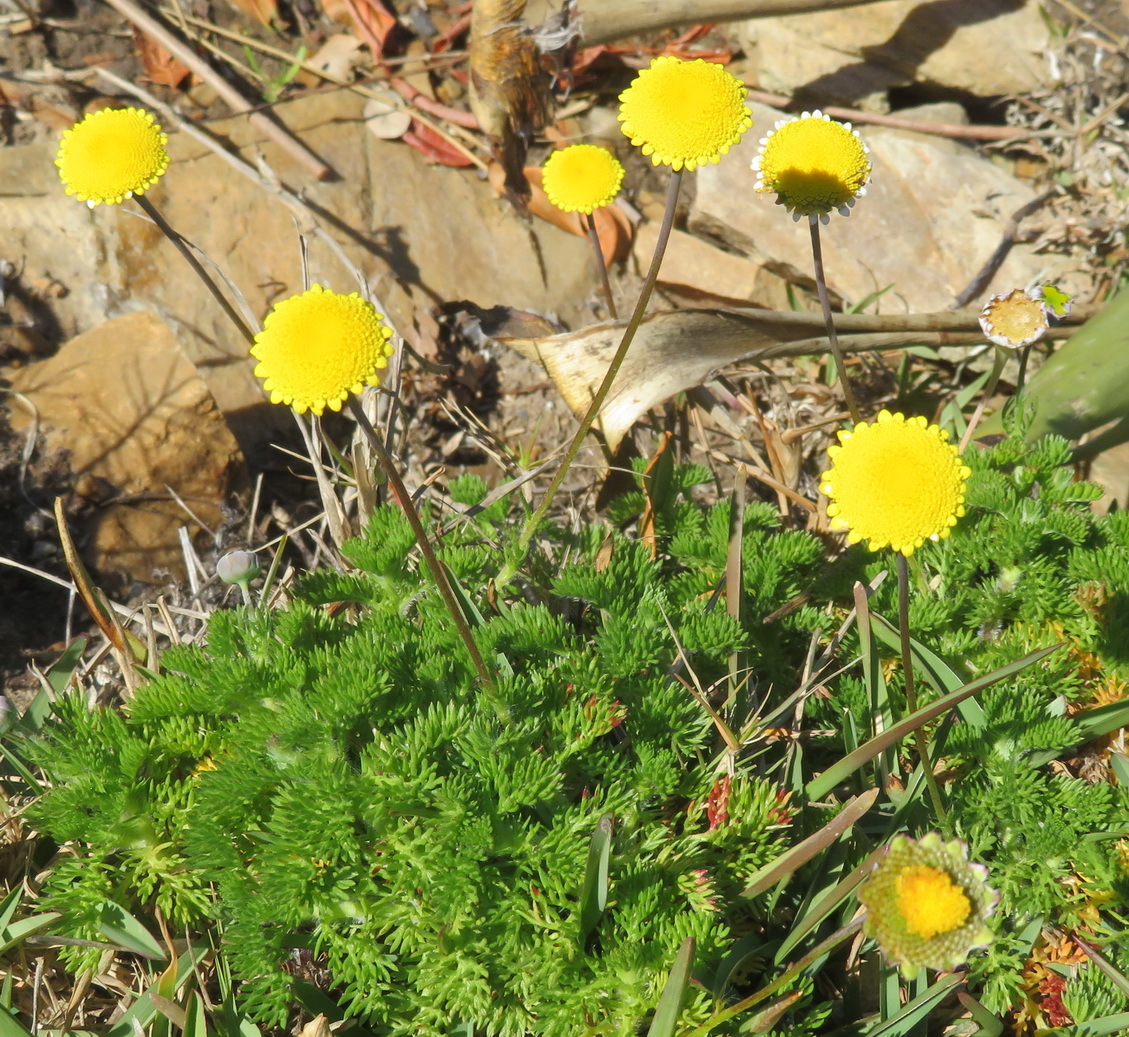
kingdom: Plantae
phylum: Tracheophyta
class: Magnoliopsida
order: Asterales
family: Asteraceae
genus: Cotula
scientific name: Cotula discolor
